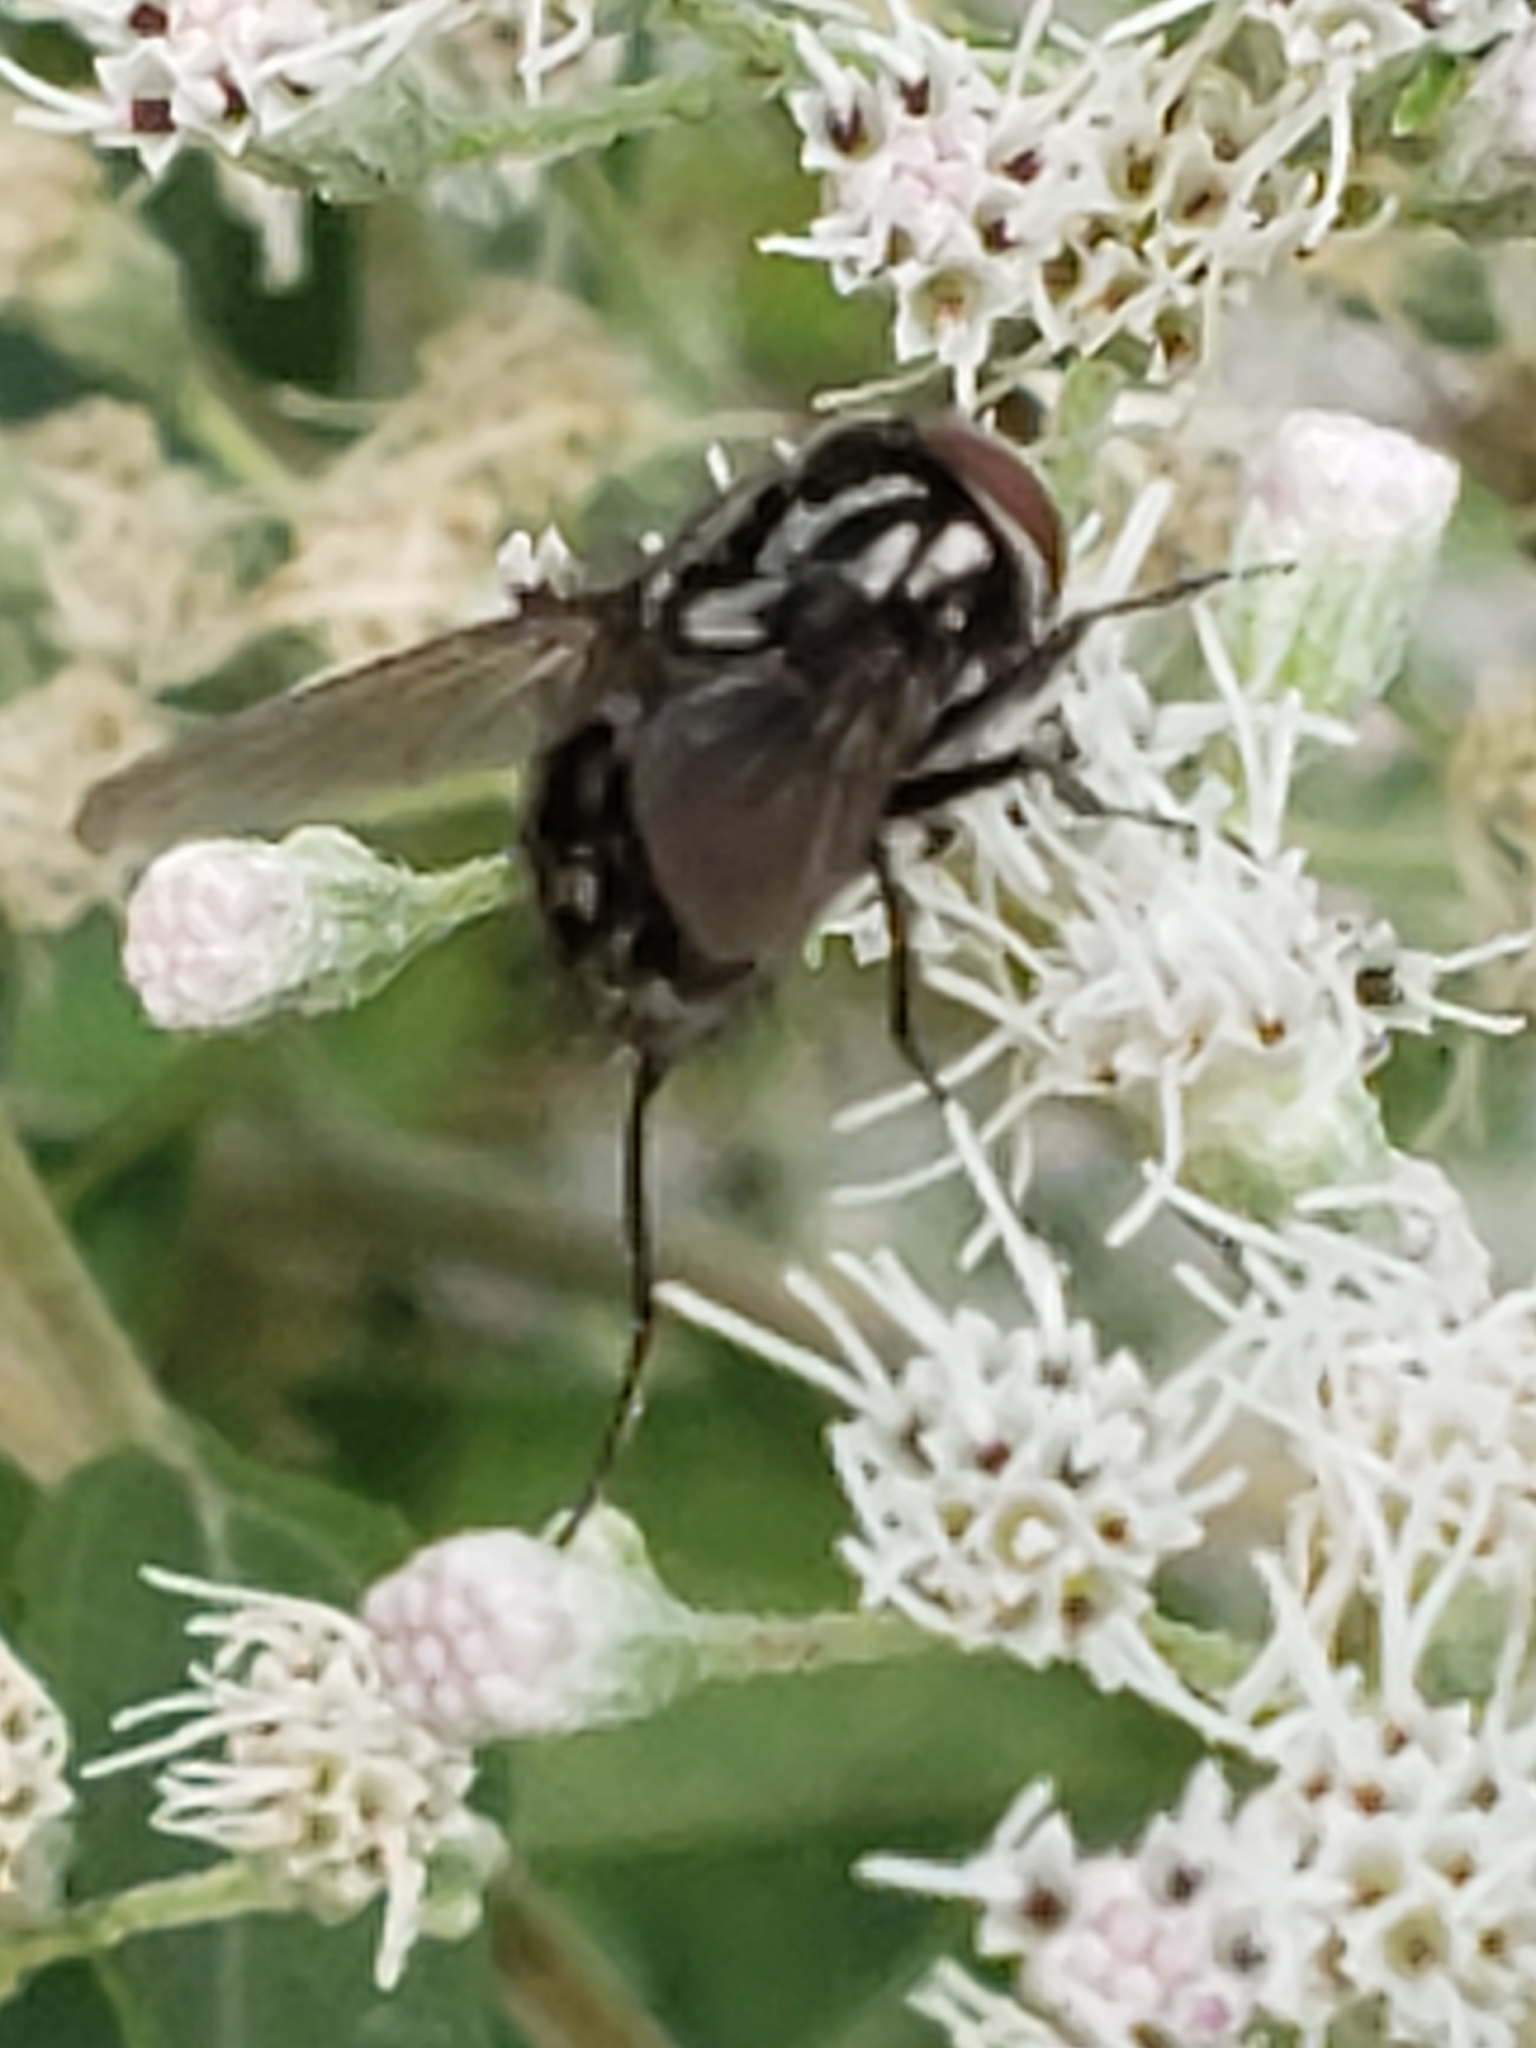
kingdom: Animalia
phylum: Arthropoda
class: Insecta
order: Diptera
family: Muscidae
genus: Graphomya
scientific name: Graphomya
